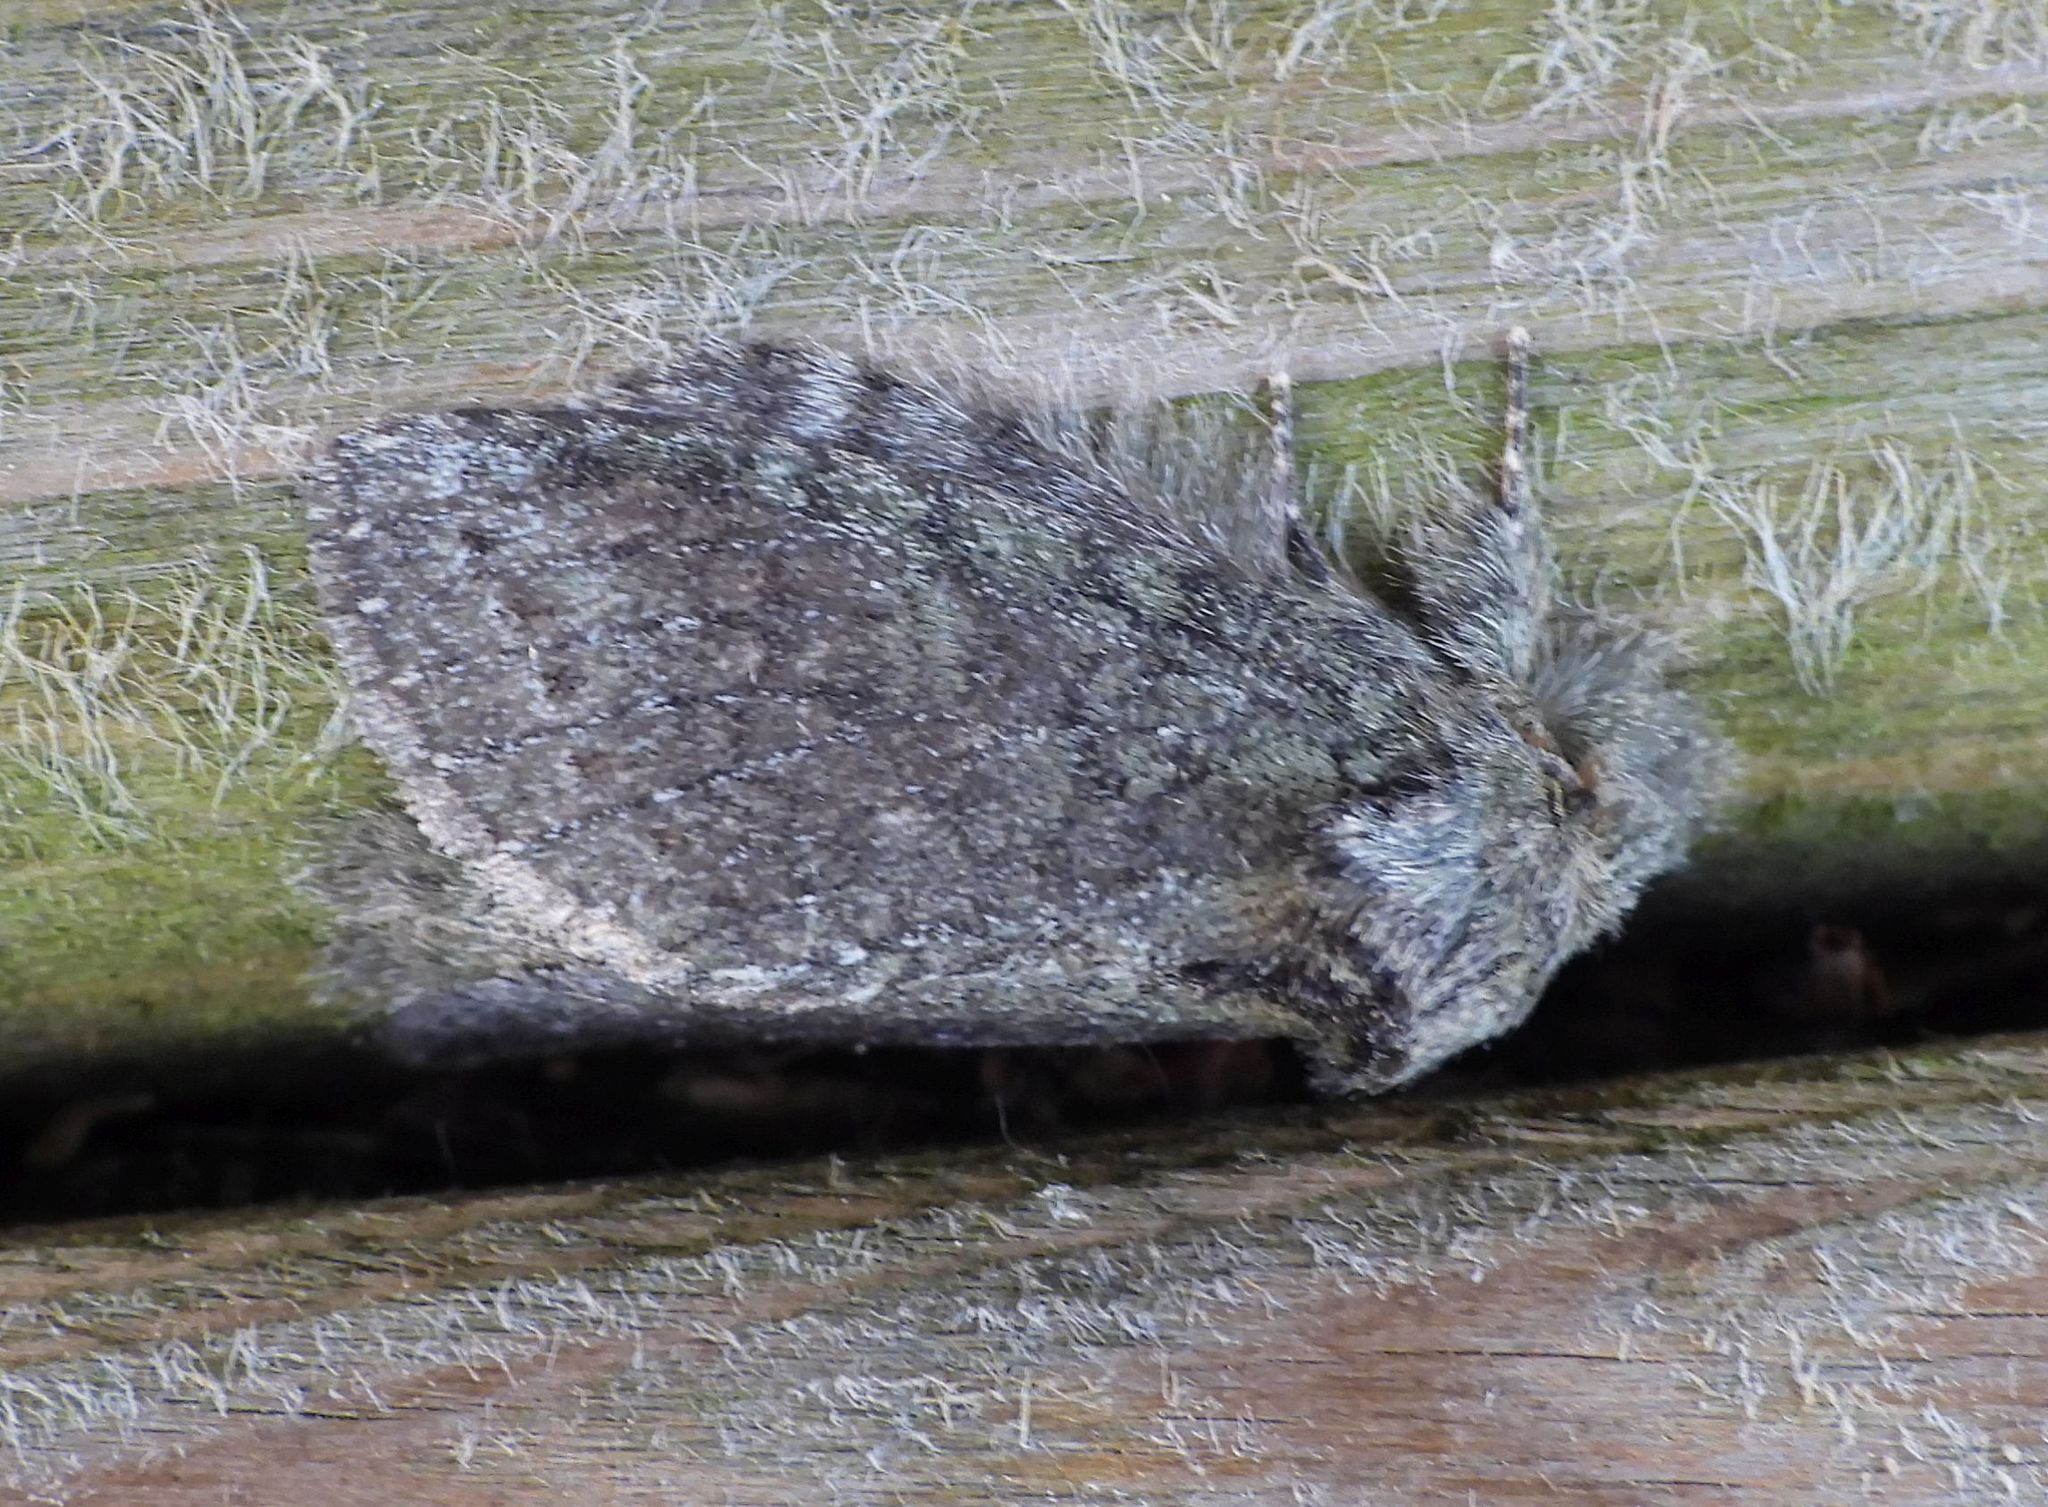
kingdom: Animalia
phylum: Arthropoda
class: Insecta
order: Lepidoptera
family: Notodontidae
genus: Disphragis
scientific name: Disphragis Cecrita guttivitta
